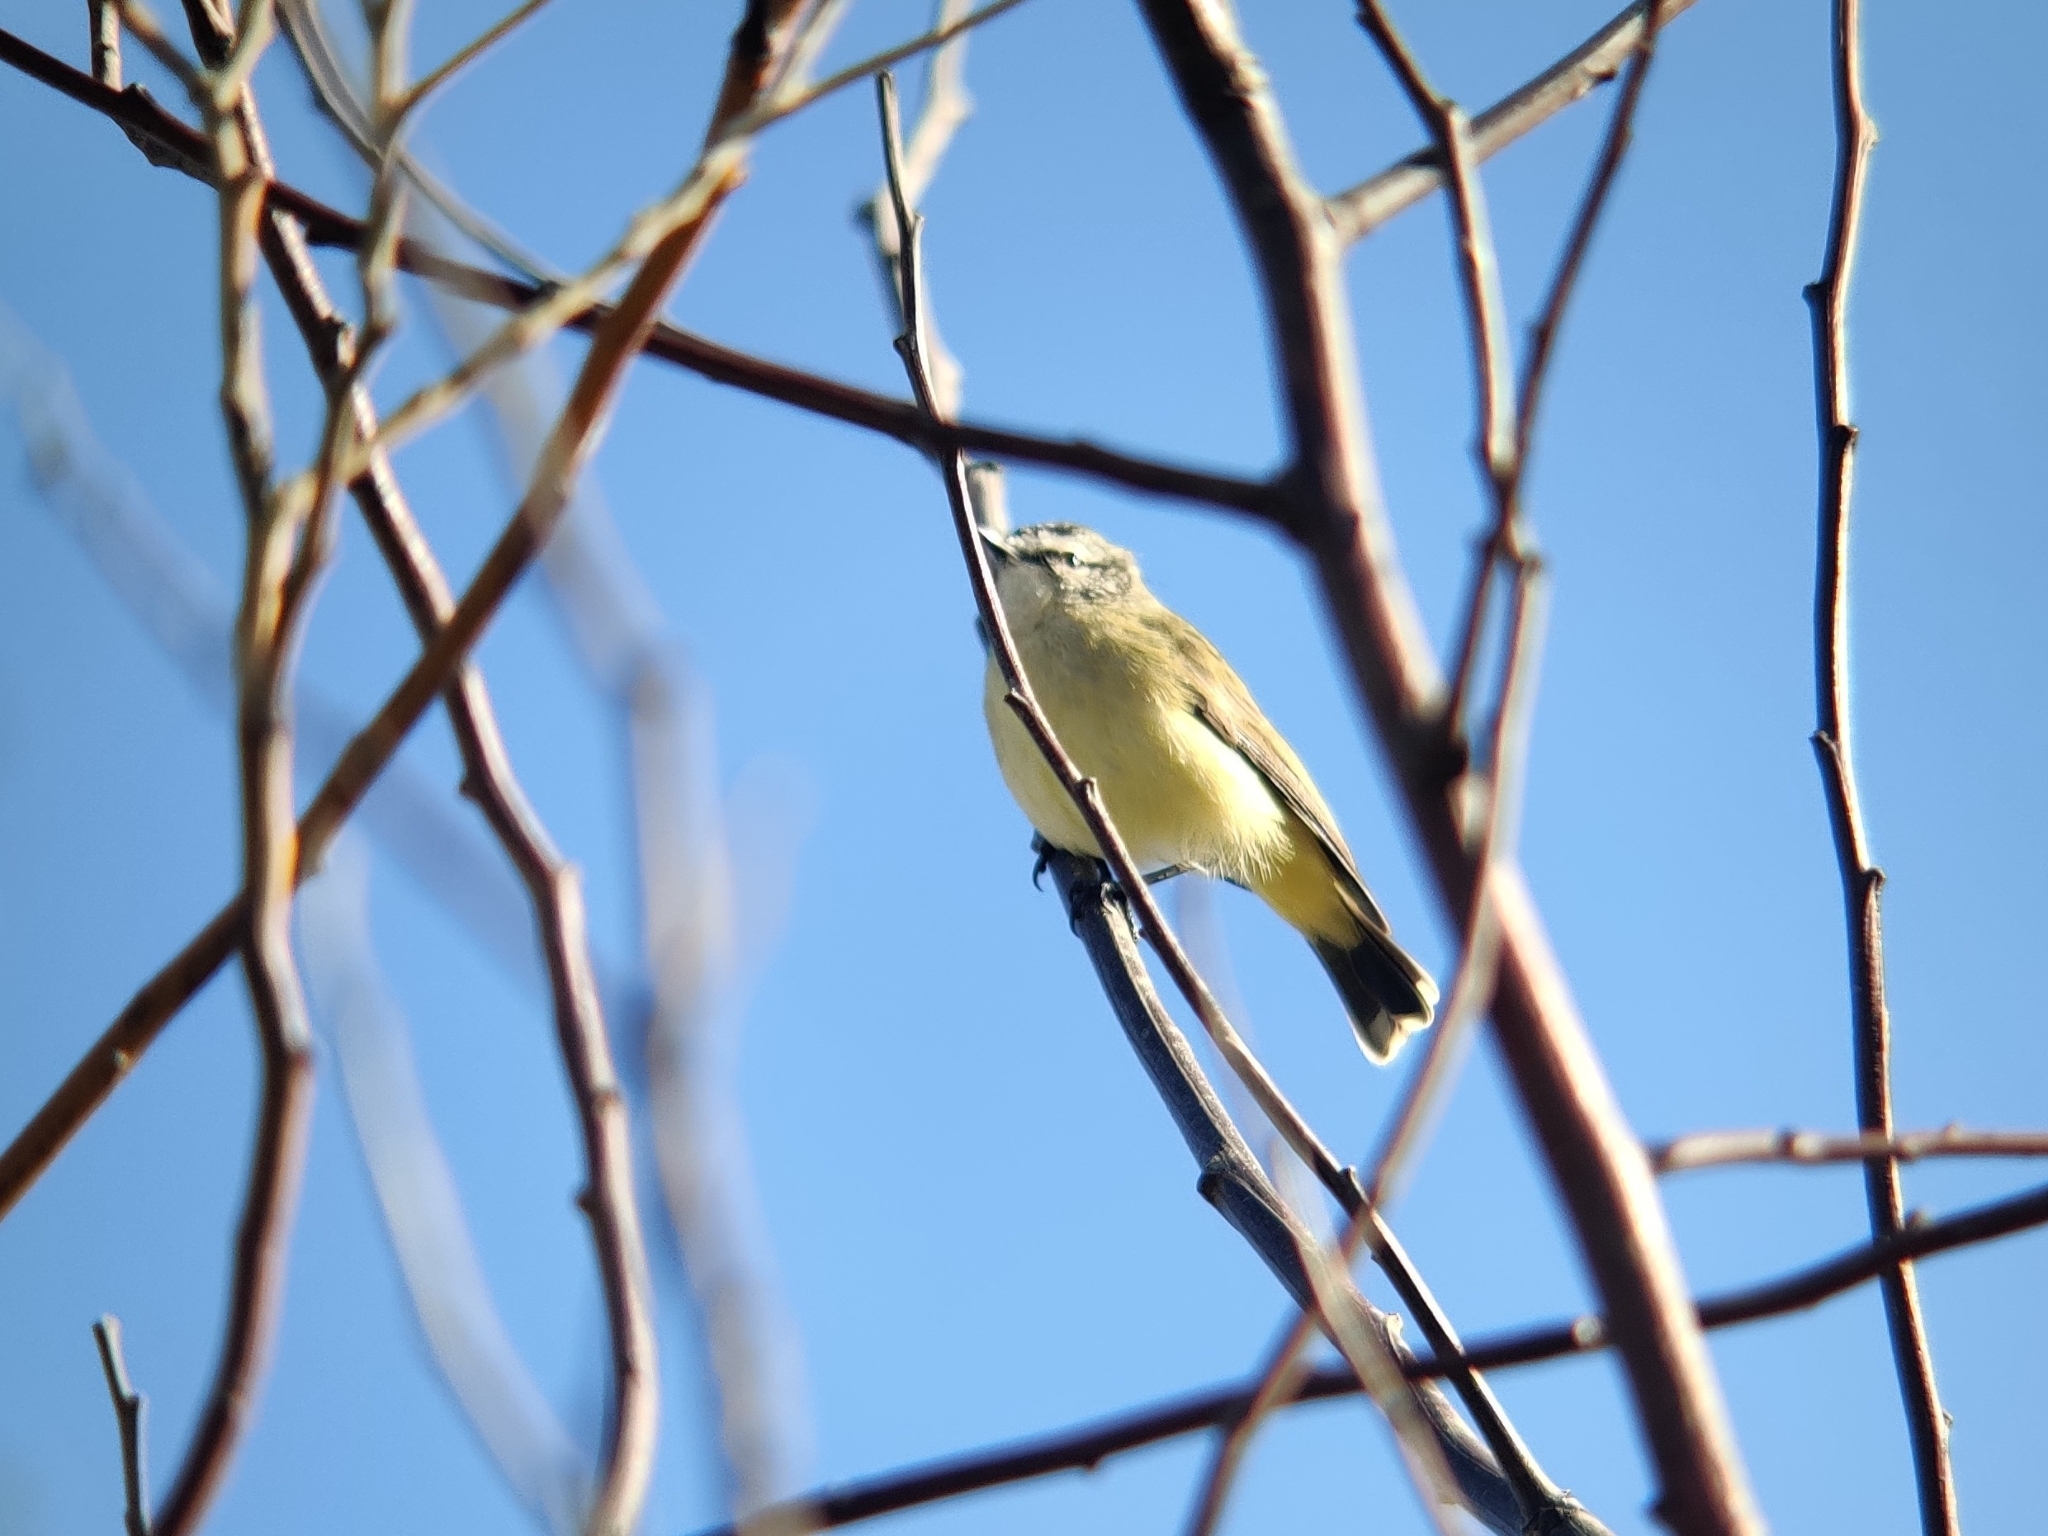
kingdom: Animalia
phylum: Chordata
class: Aves
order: Passeriformes
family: Acanthizidae
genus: Acanthiza
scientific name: Acanthiza chrysorrhoa
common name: Yellow-rumped thornbill
